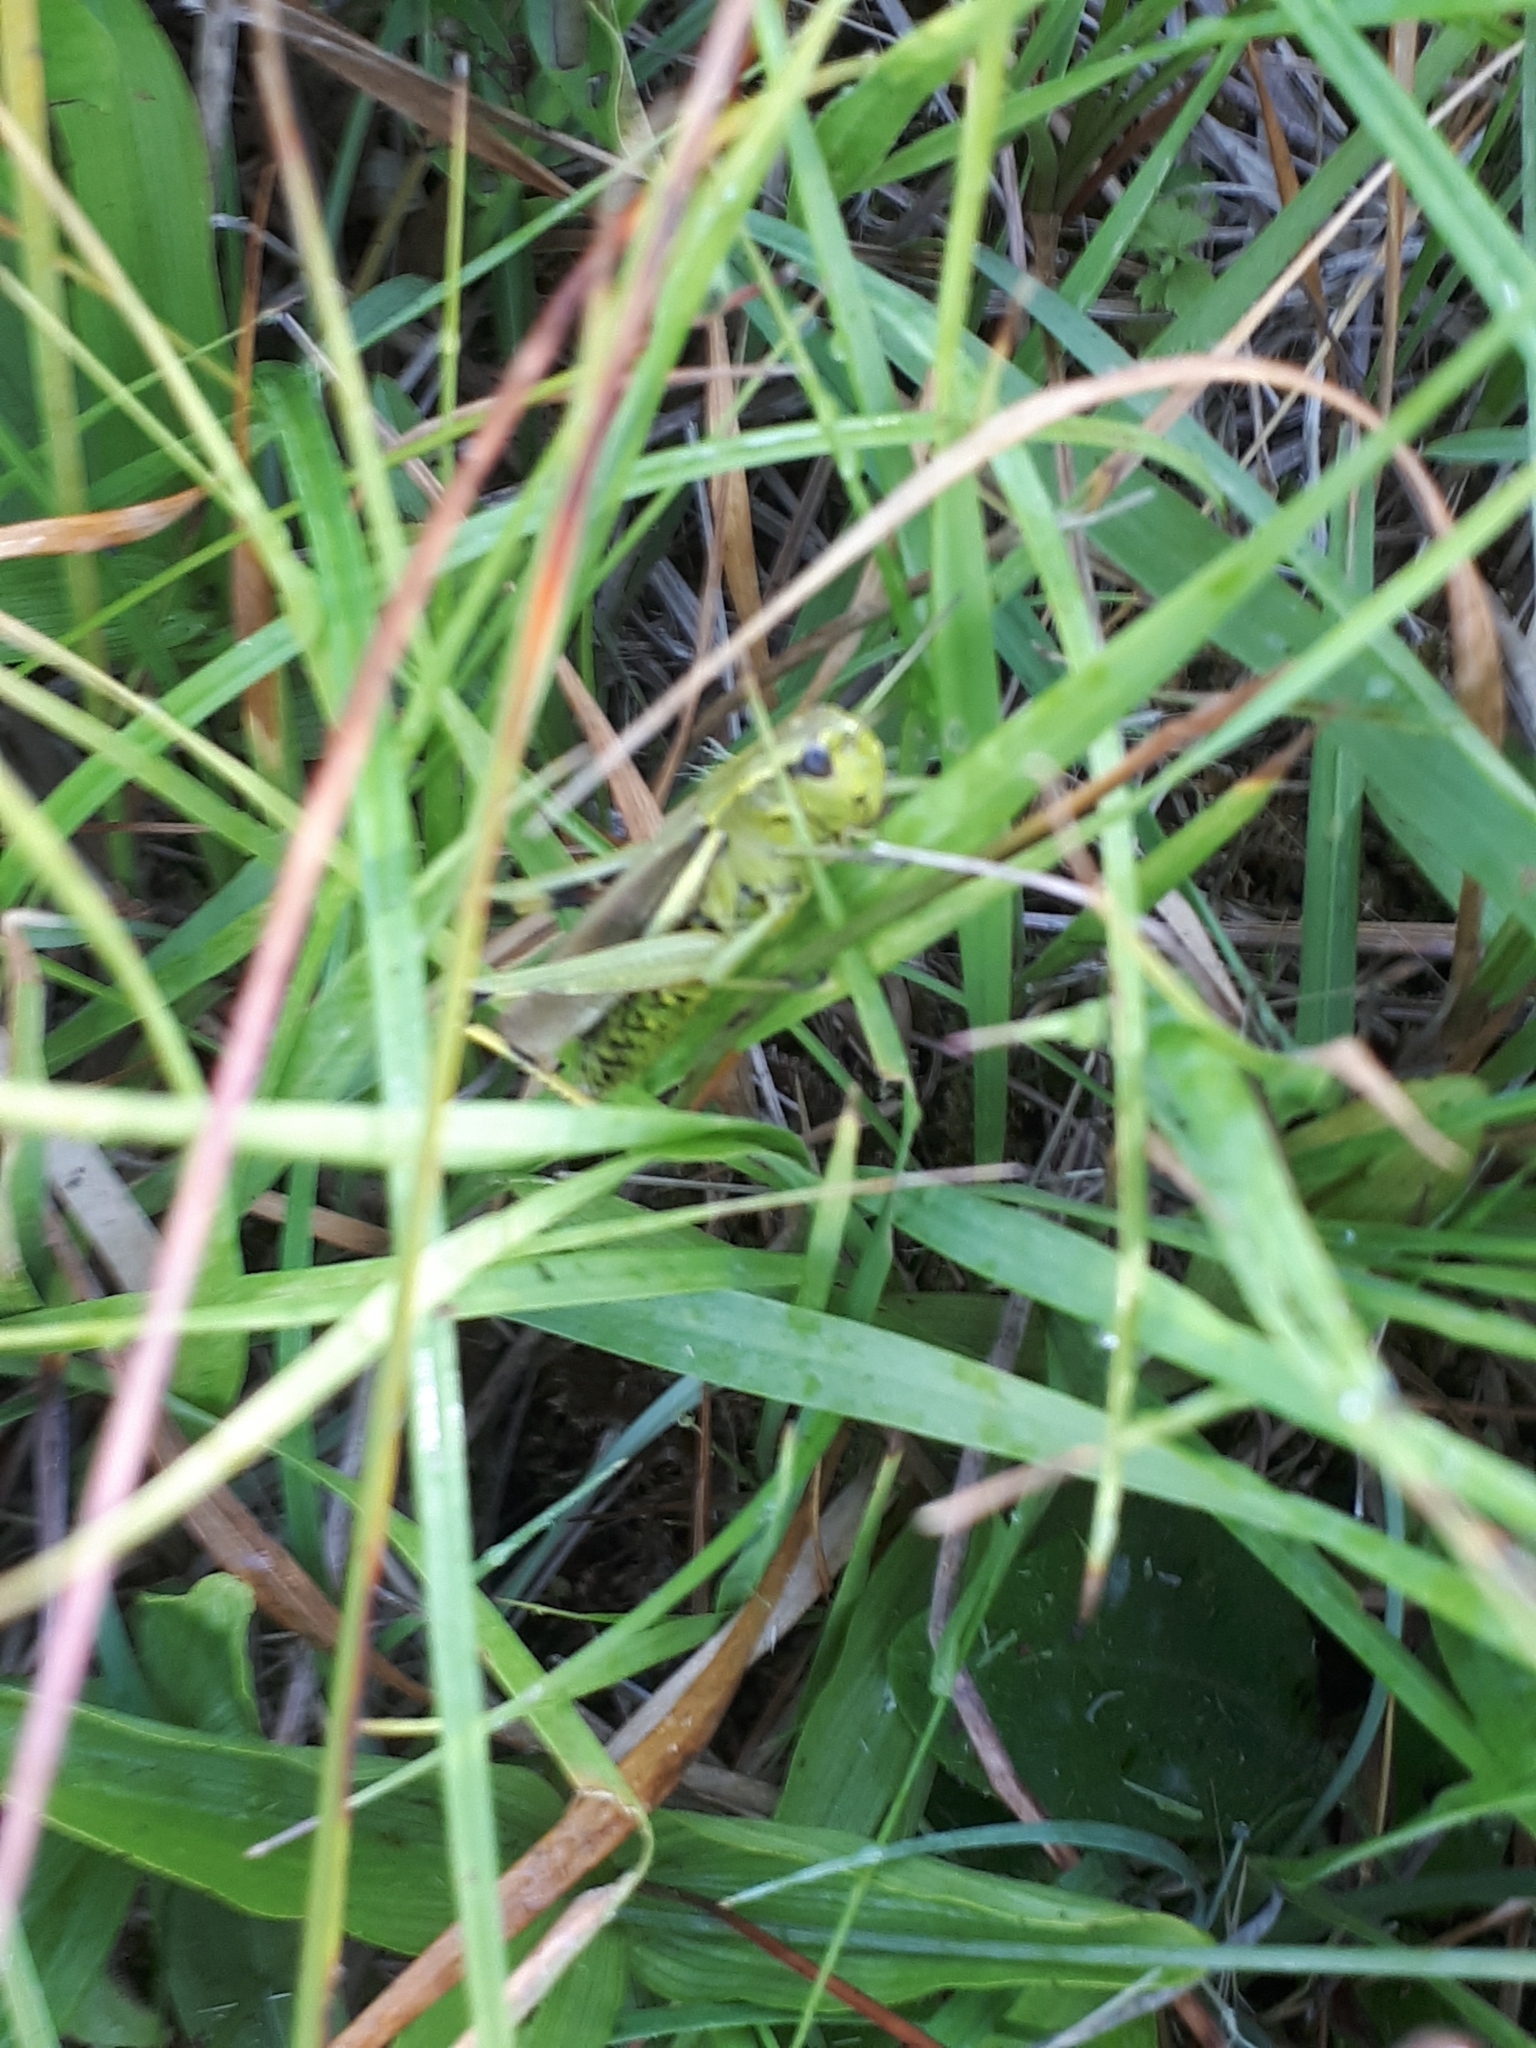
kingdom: Animalia
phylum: Arthropoda
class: Insecta
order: Orthoptera
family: Acrididae
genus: Stethophyma
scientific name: Stethophyma grossum
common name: Large marsh grasshopper
